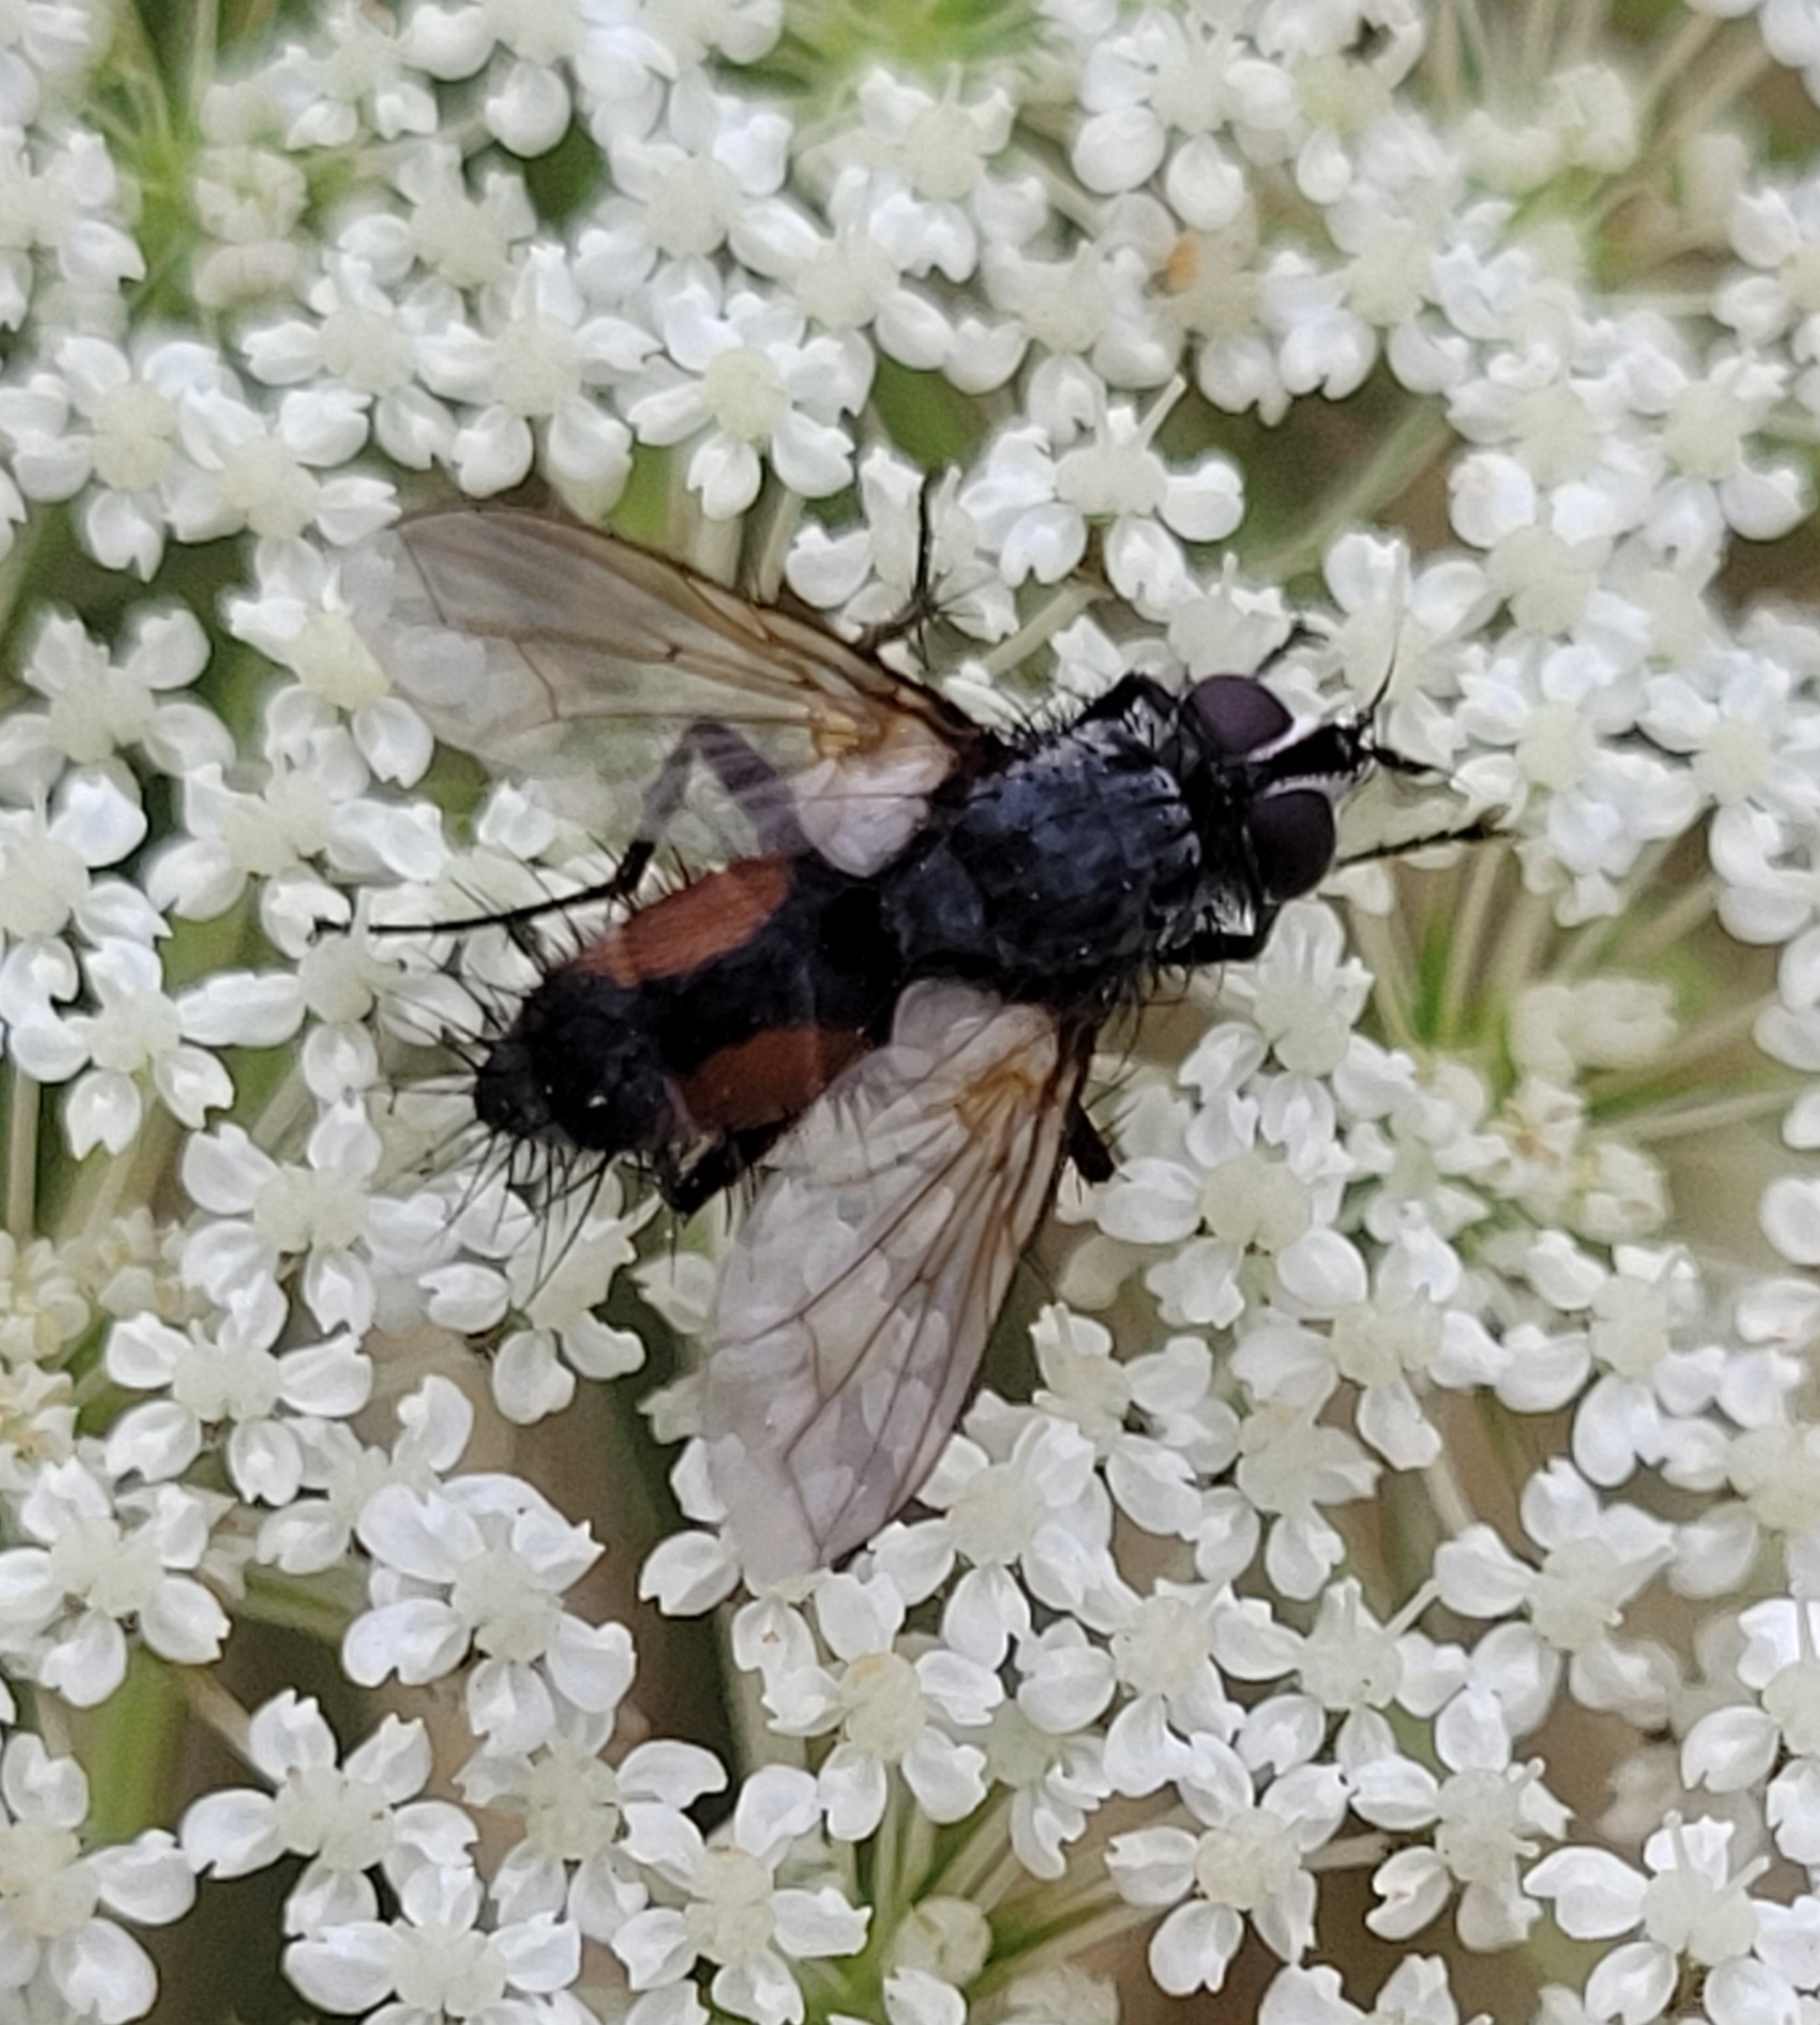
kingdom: Animalia
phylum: Arthropoda
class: Insecta
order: Diptera
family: Tachinidae
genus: Eriothrix
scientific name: Eriothrix rufomaculatus
